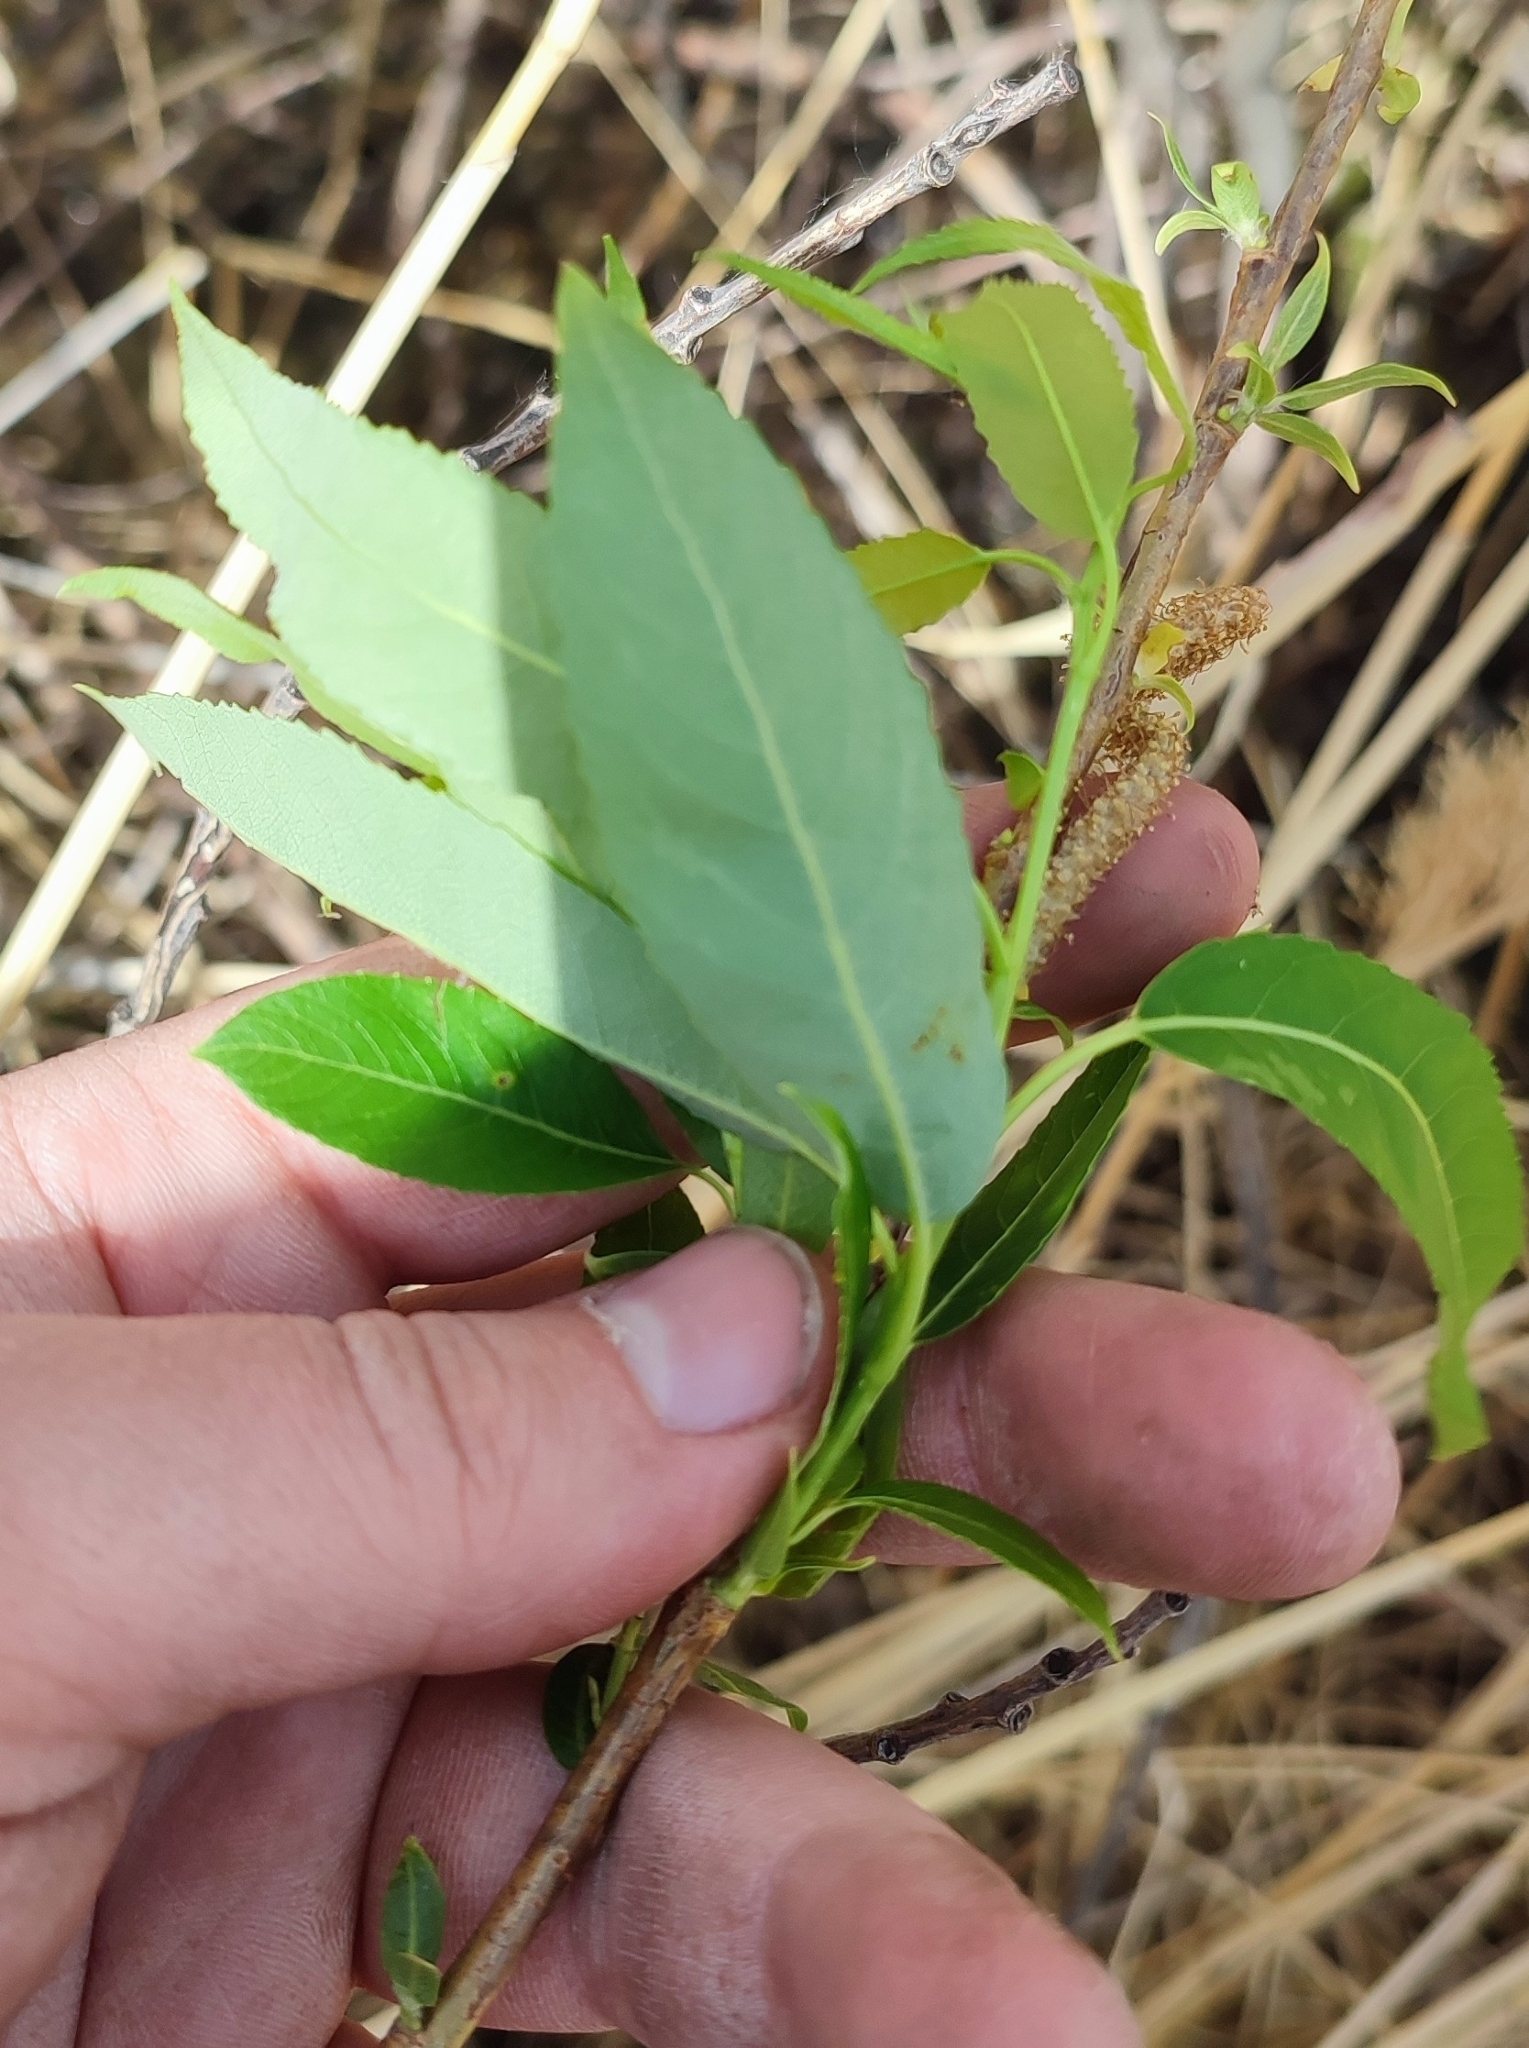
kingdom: Plantae
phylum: Tracheophyta
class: Magnoliopsida
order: Malpighiales
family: Salicaceae
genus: Salix
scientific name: Salix triandra
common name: Almond willow
